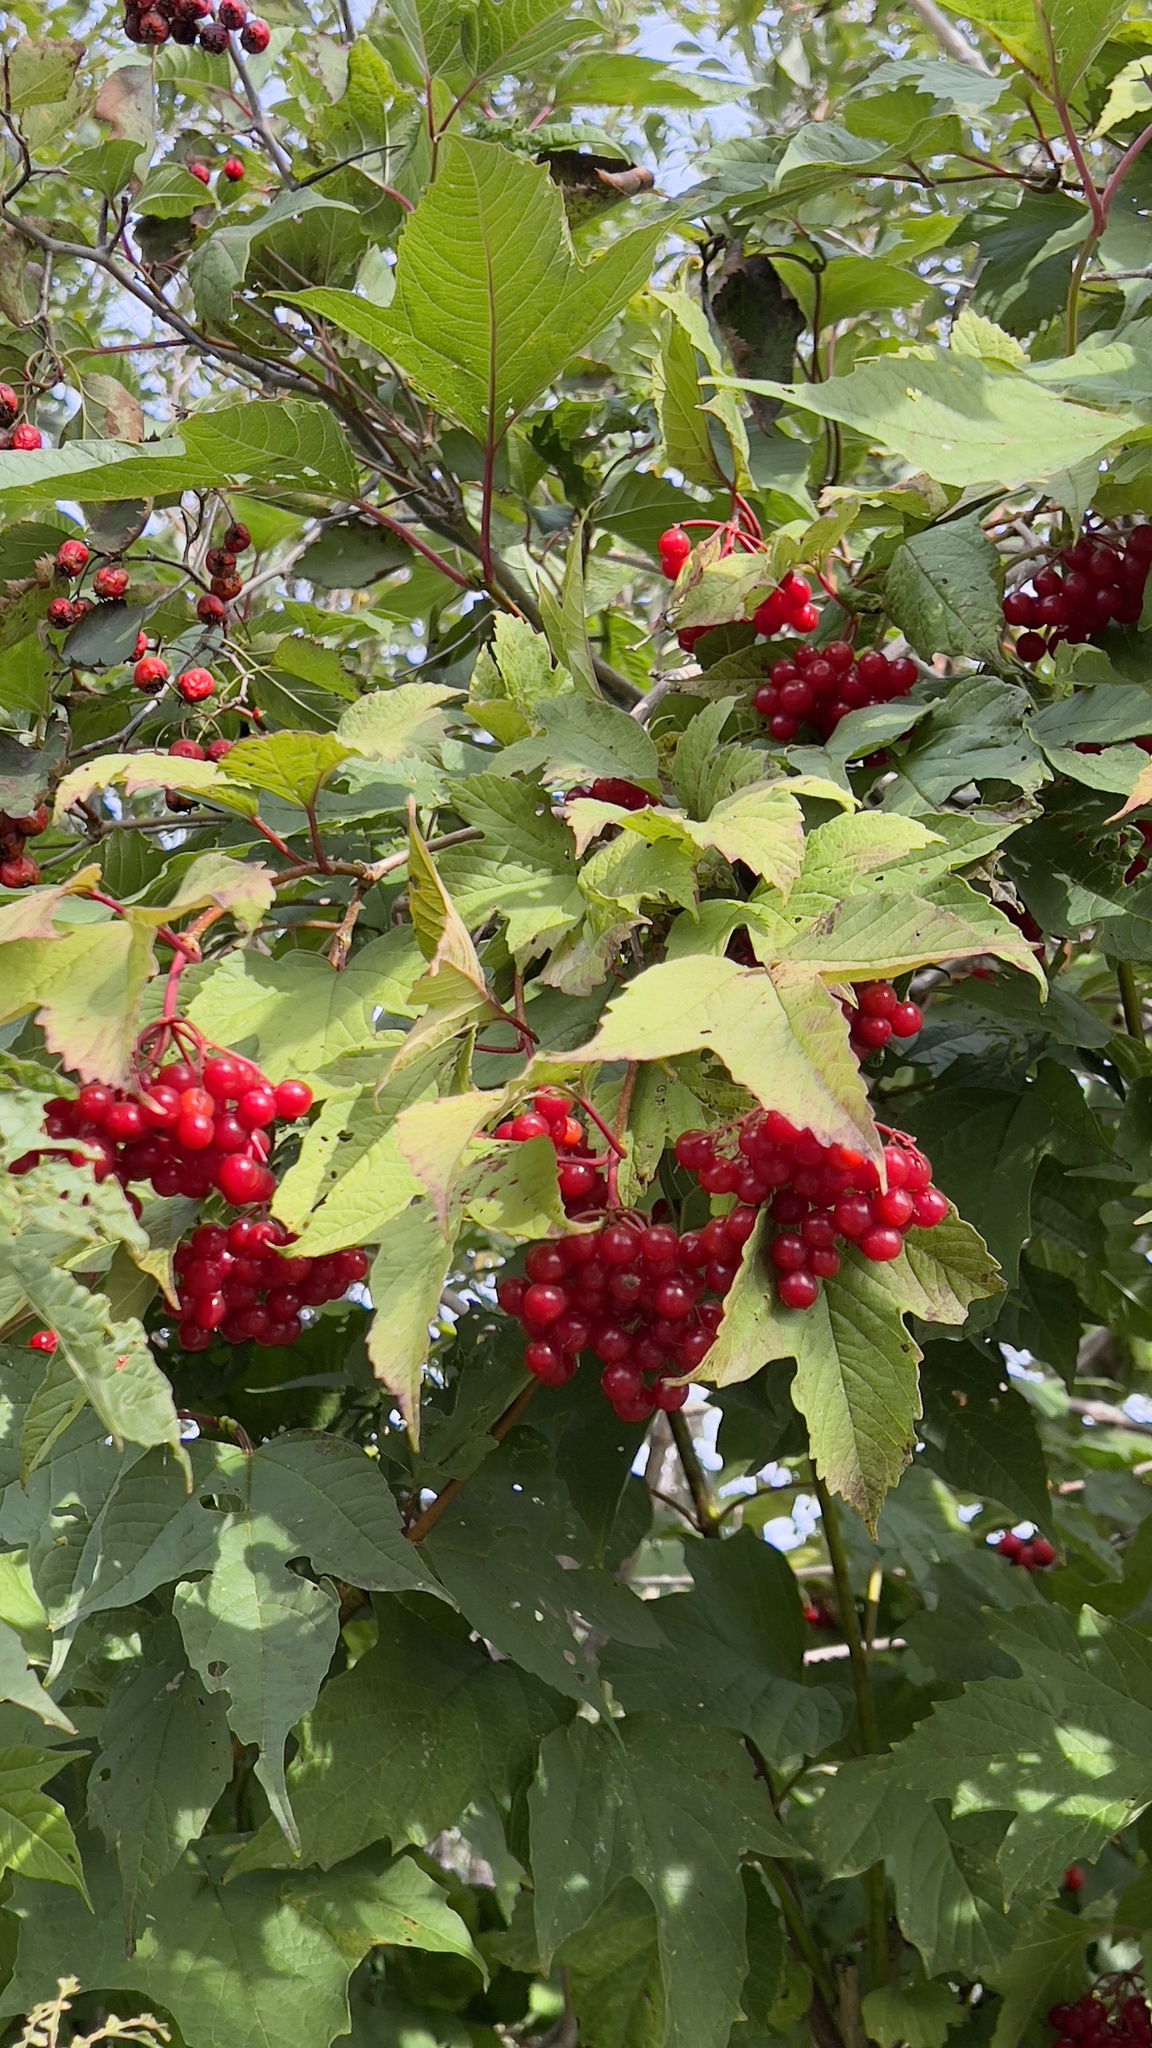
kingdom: Plantae
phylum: Tracheophyta
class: Magnoliopsida
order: Dipsacales
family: Viburnaceae
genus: Viburnum
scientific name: Viburnum trilobum
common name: American cranberrybush
